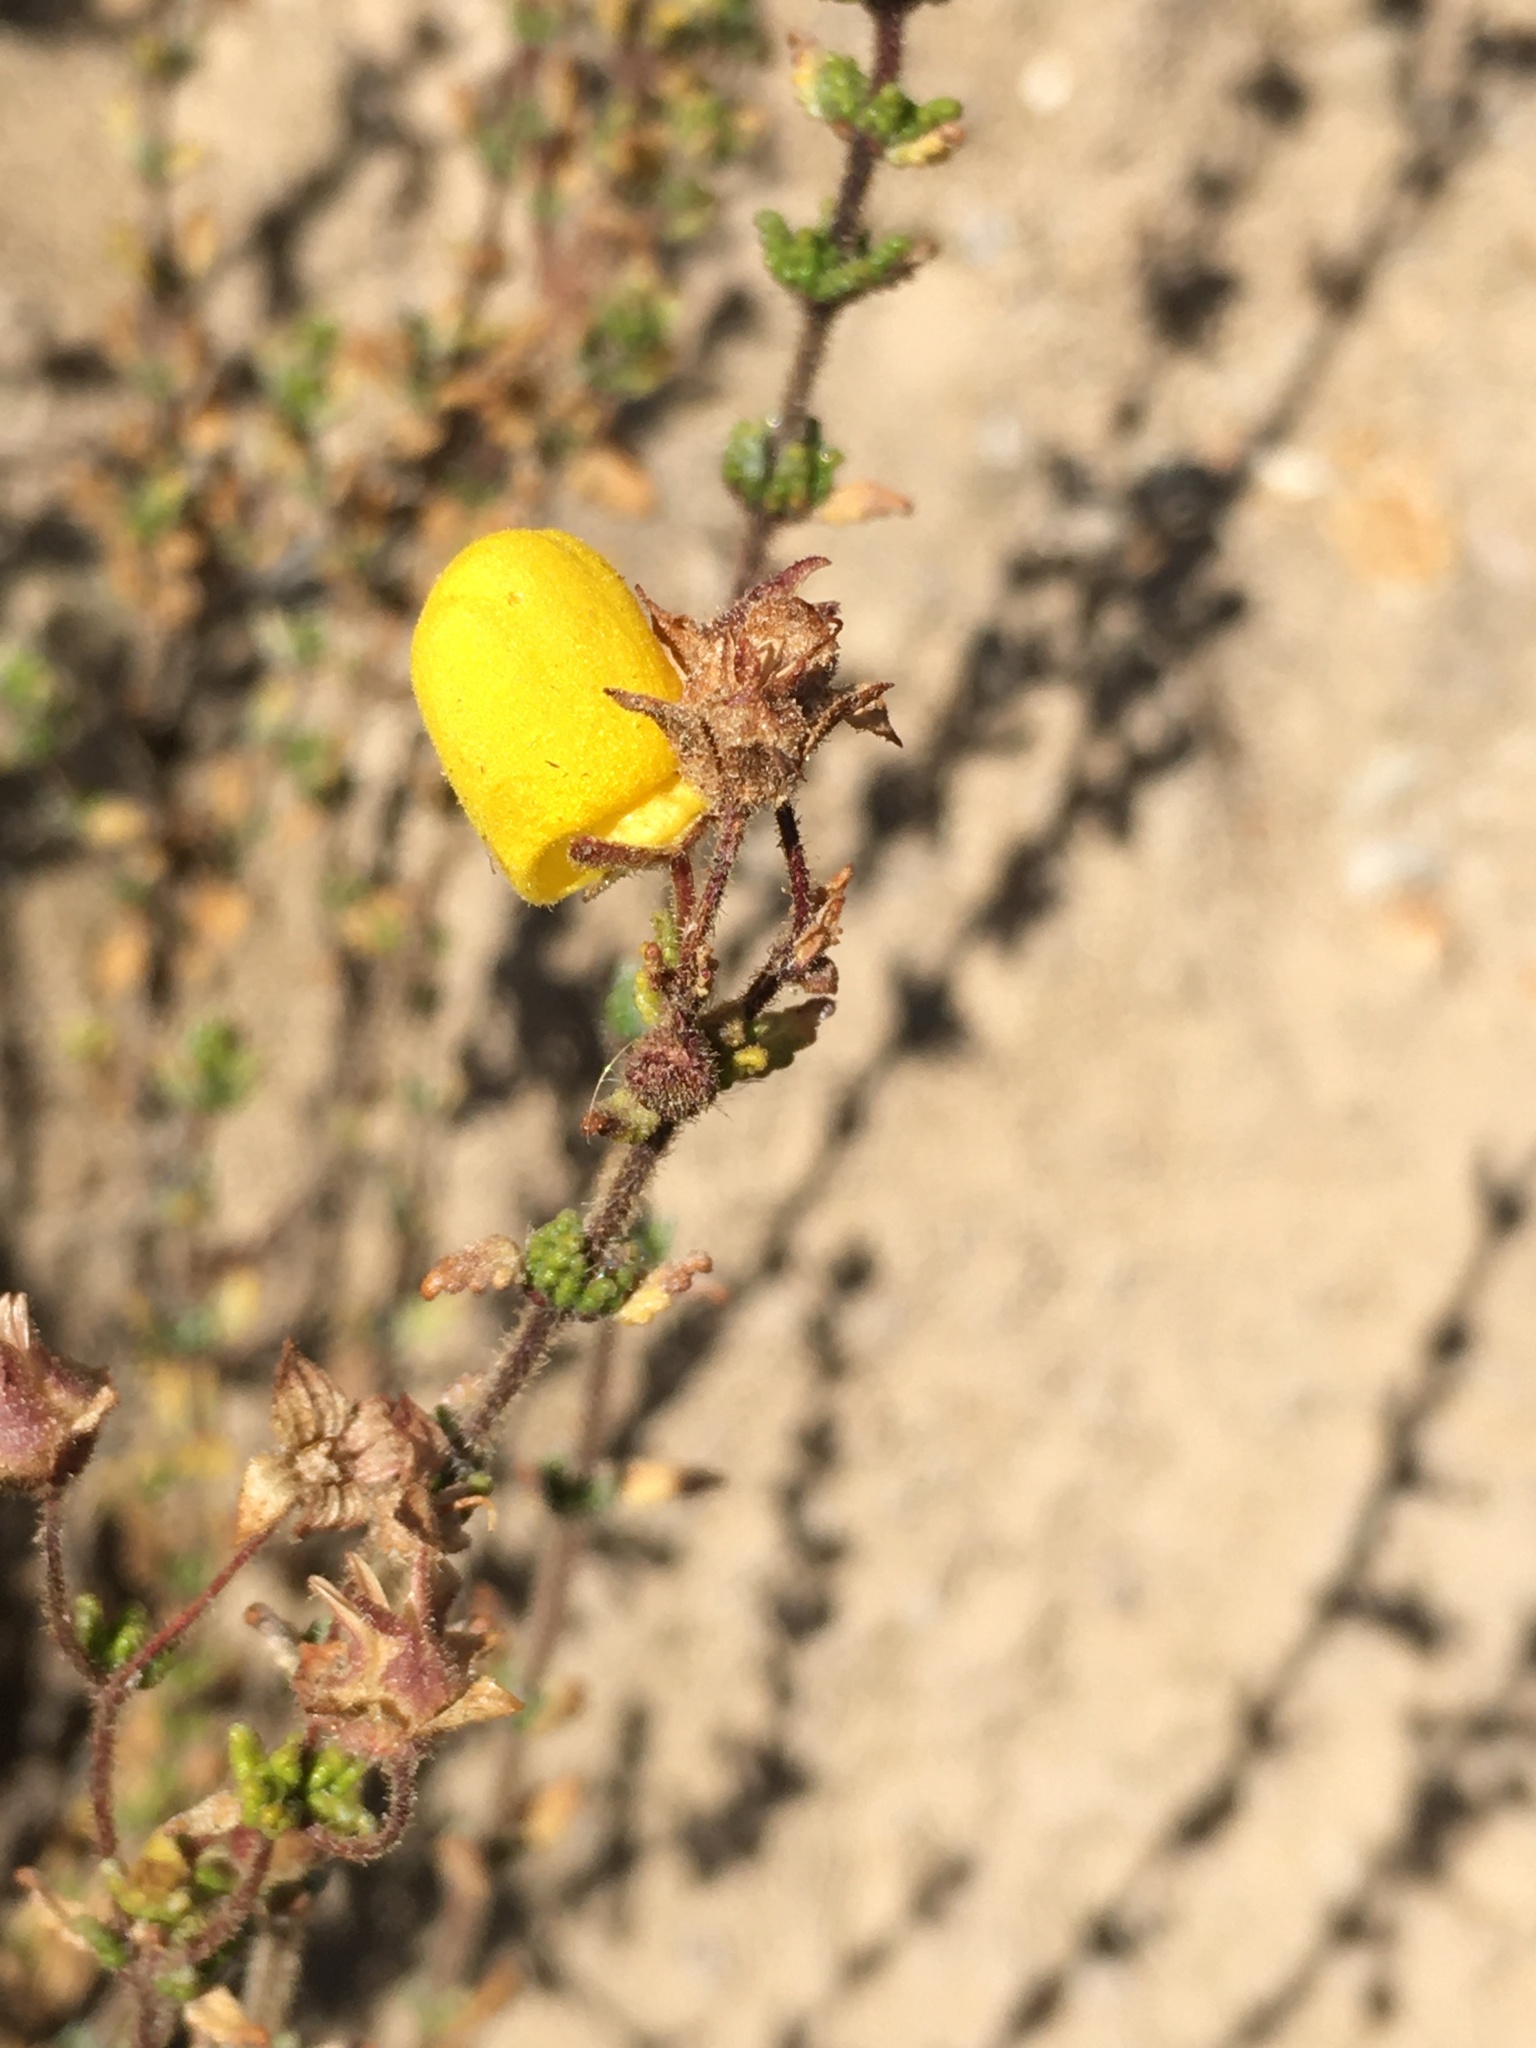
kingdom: Plantae
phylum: Tracheophyta
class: Magnoliopsida
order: Lamiales
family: Calceolariaceae
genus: Calceolaria
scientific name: Calceolaria inamoena
